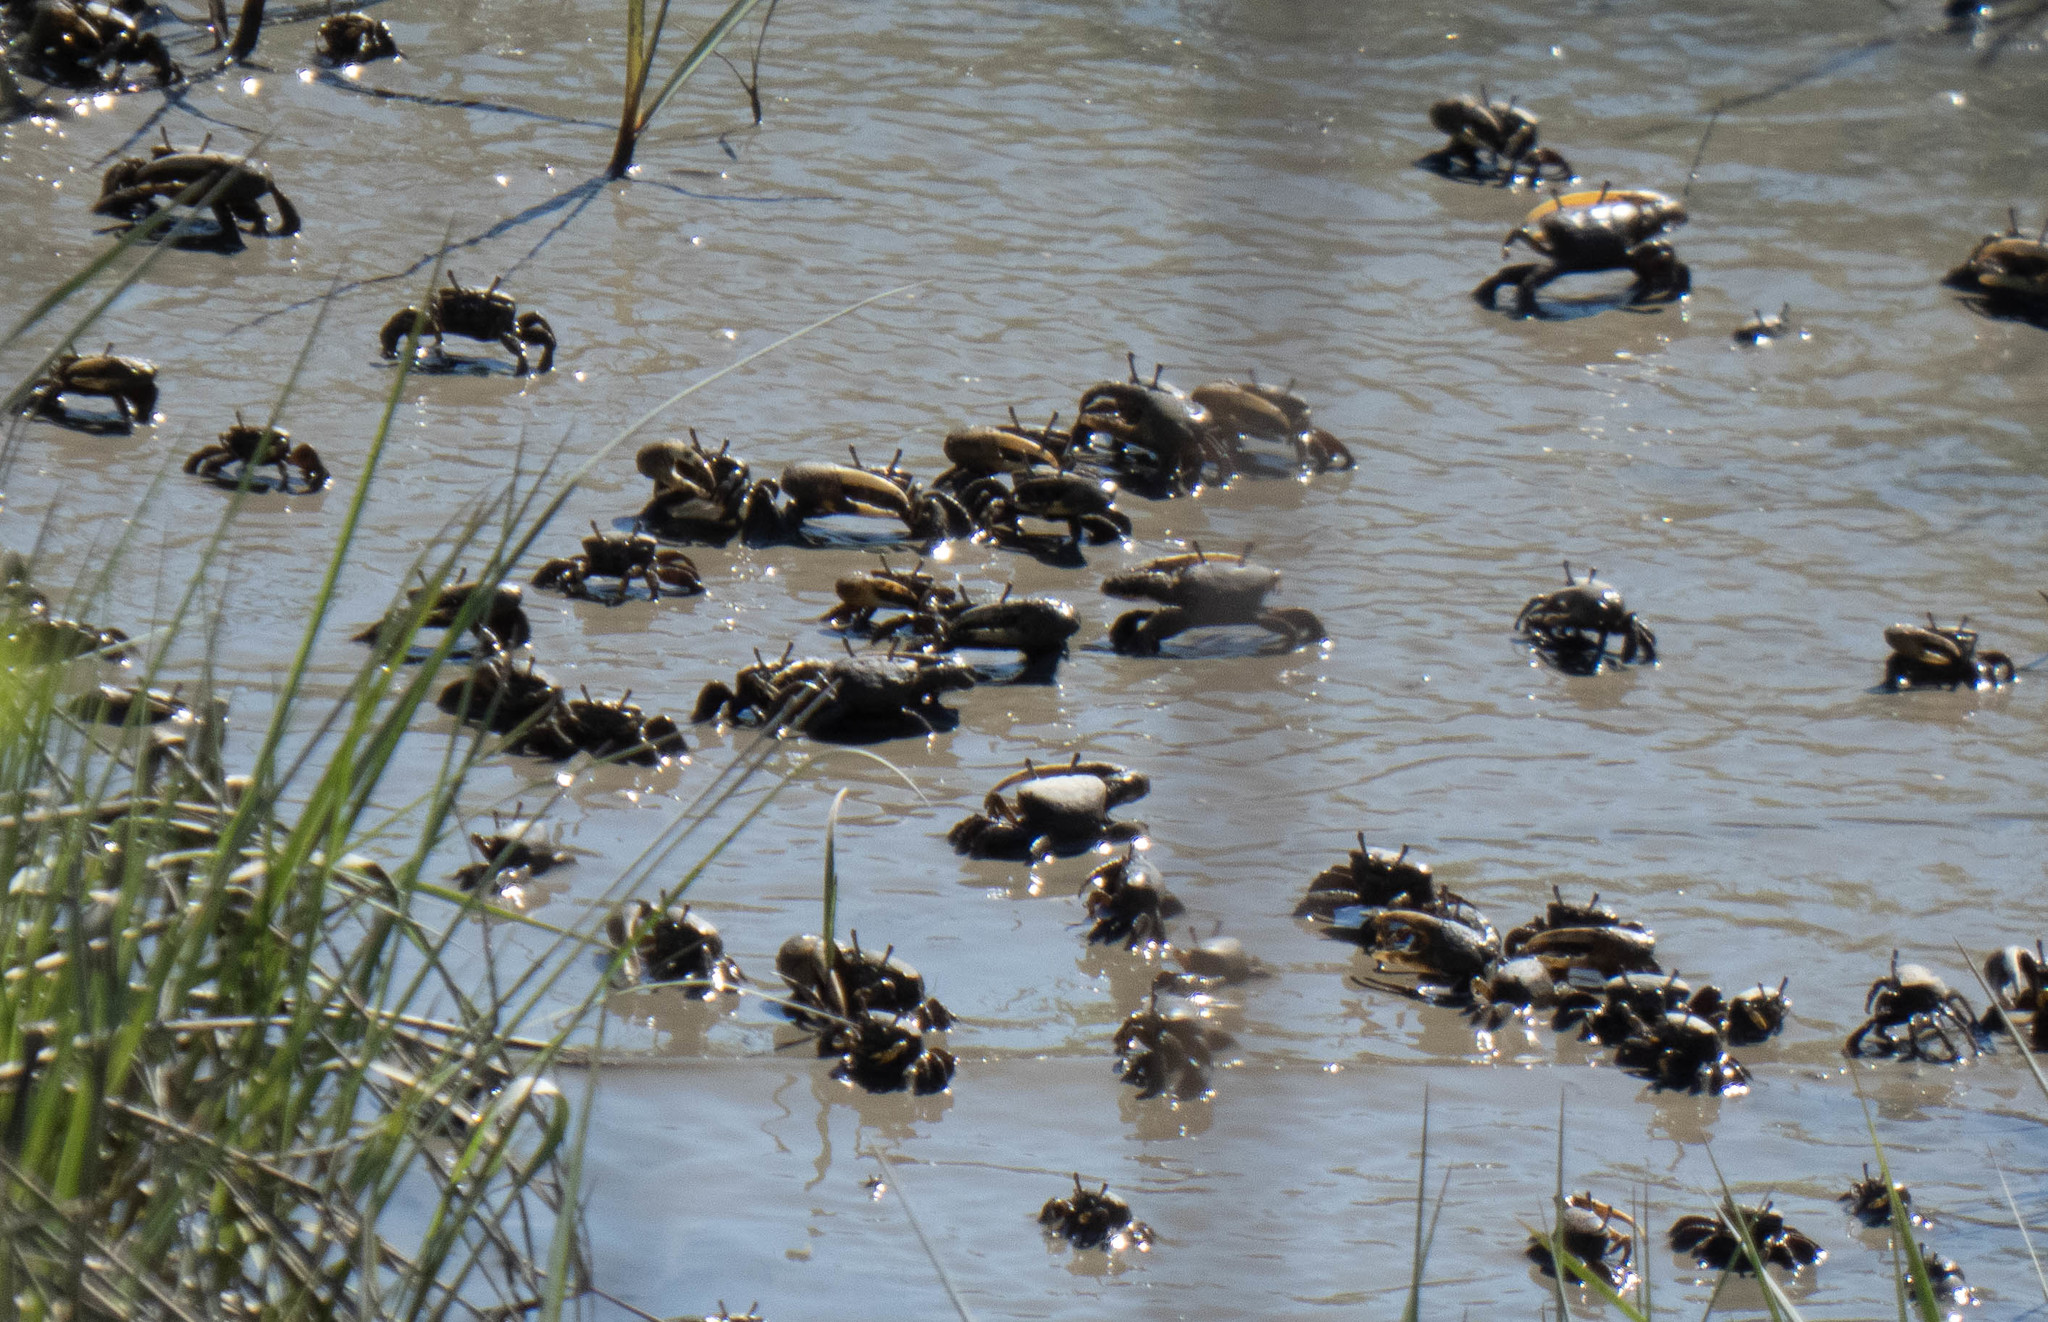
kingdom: Animalia
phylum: Arthropoda
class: Malacostraca
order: Decapoda
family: Ocypodidae
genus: Minuca
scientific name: Minuca pugnax
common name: Mud fiddler crab
